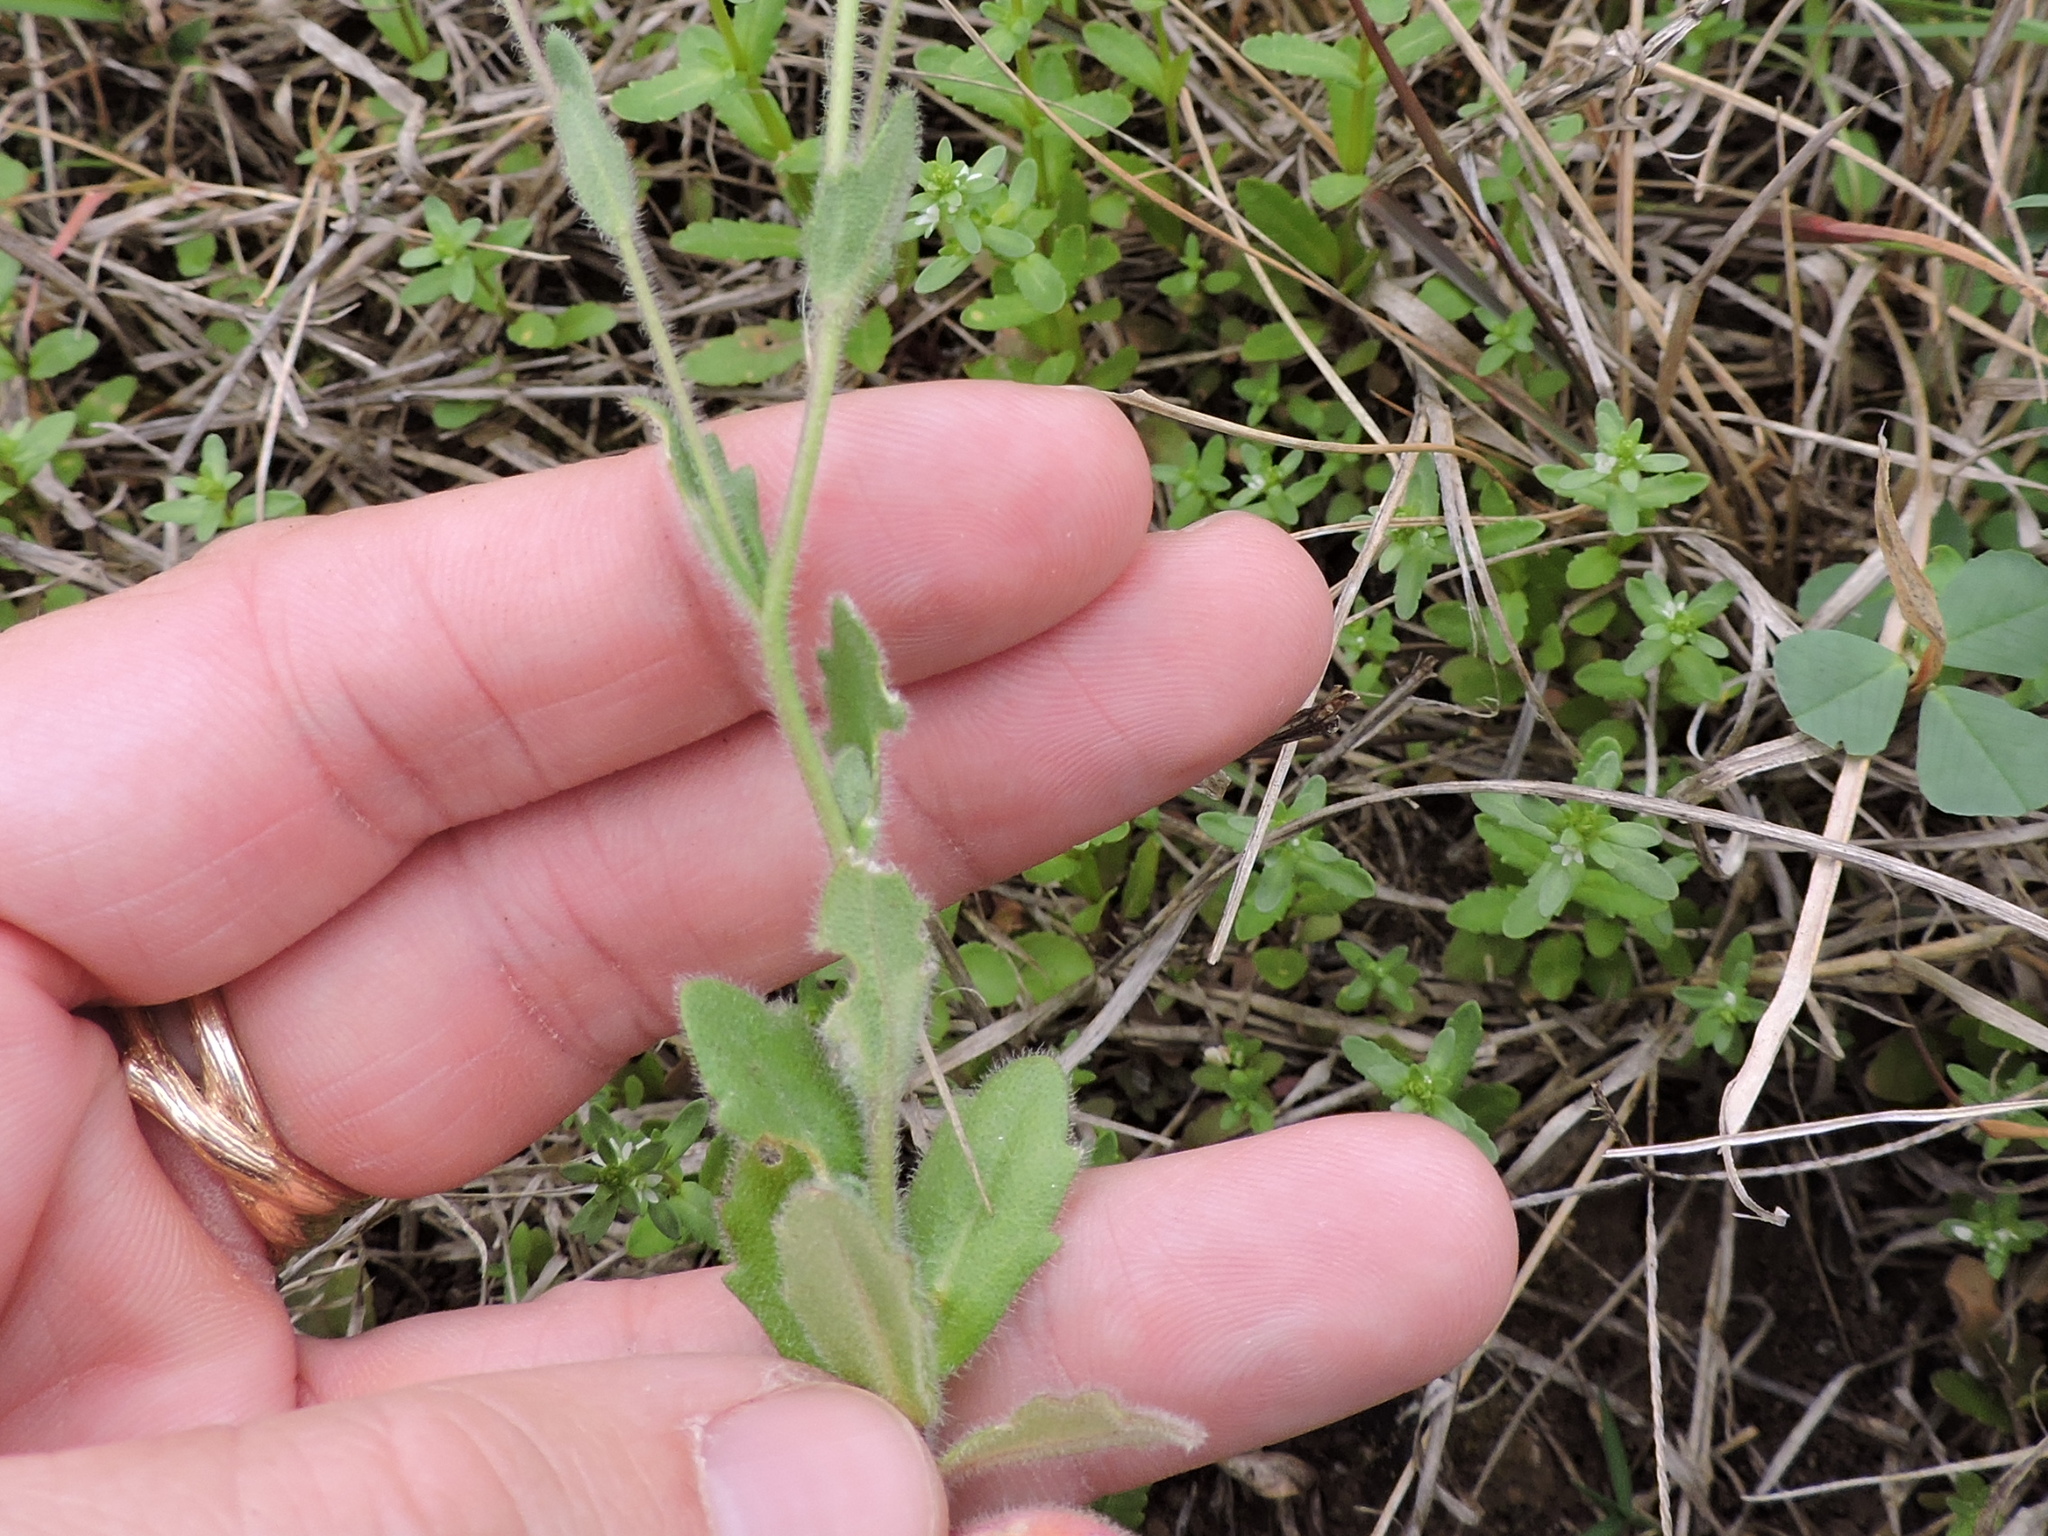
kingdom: Plantae
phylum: Tracheophyta
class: Magnoliopsida
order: Brassicales
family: Brassicaceae
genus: Tomostima
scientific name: Tomostima platycarpa
